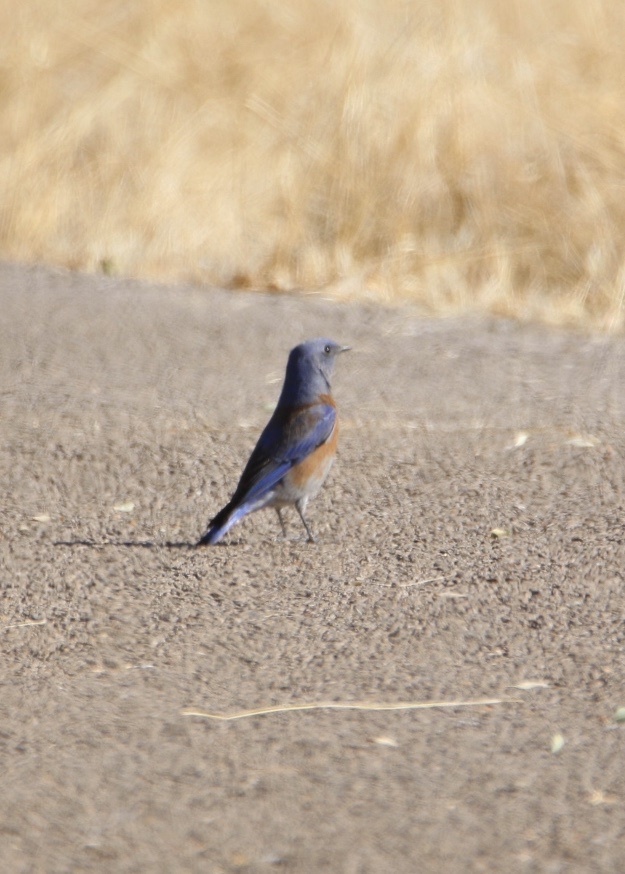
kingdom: Animalia
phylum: Chordata
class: Aves
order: Passeriformes
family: Turdidae
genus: Sialia
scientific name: Sialia mexicana
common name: Western bluebird
